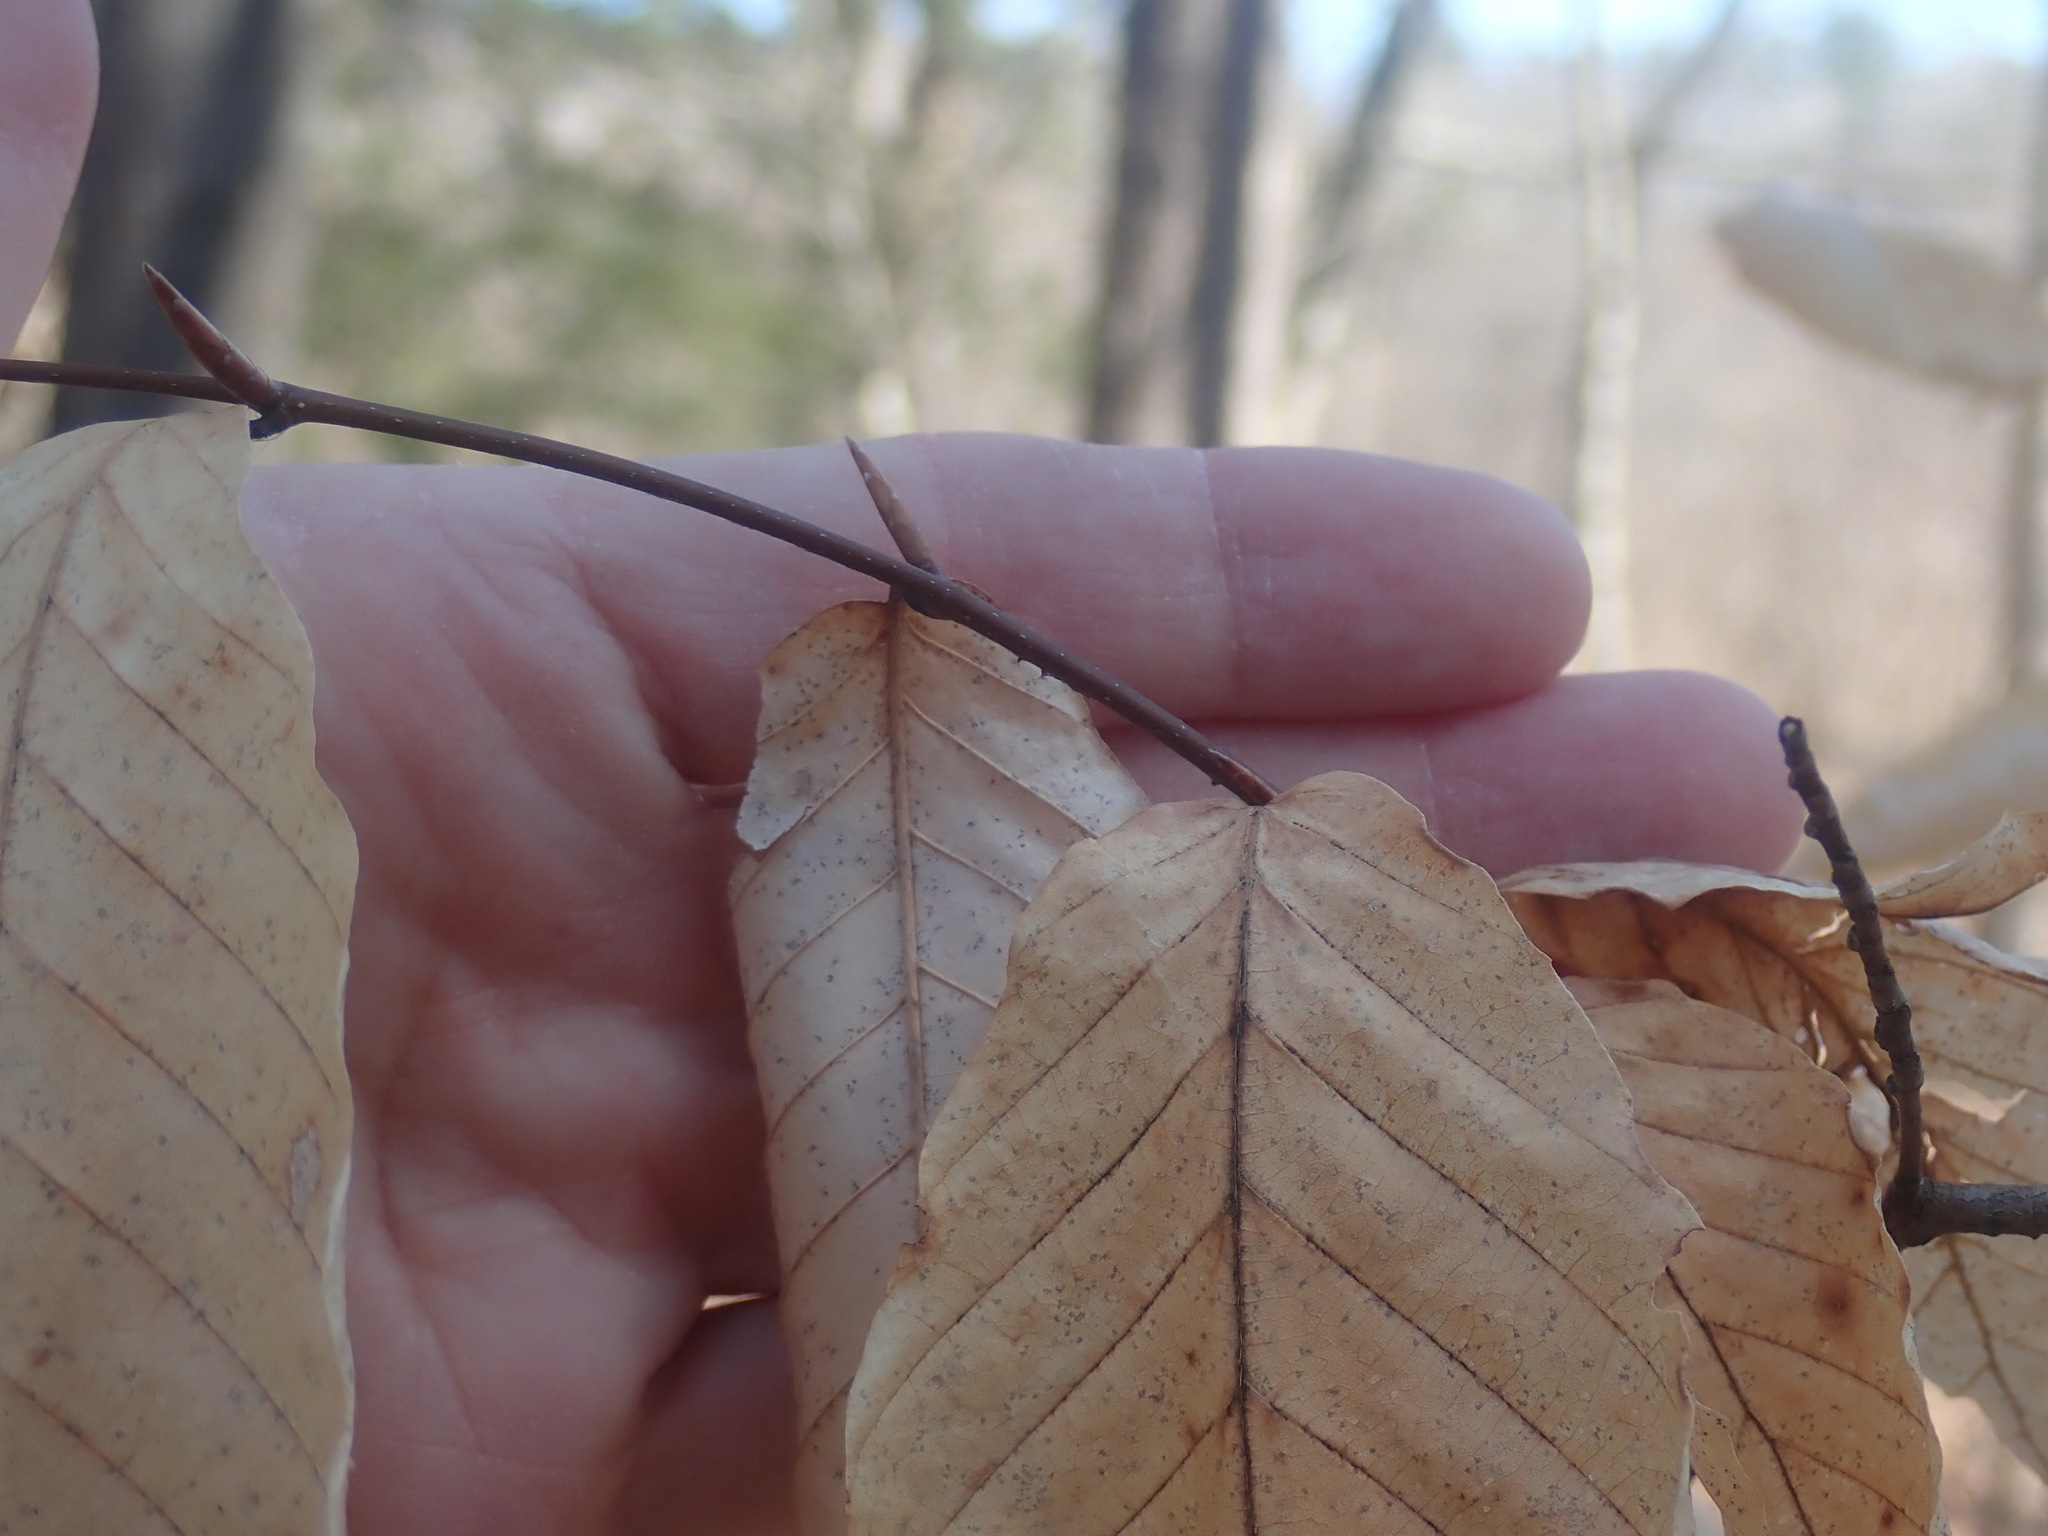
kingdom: Plantae
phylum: Tracheophyta
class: Magnoliopsida
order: Fagales
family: Fagaceae
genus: Fagus
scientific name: Fagus grandifolia
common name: American beech
